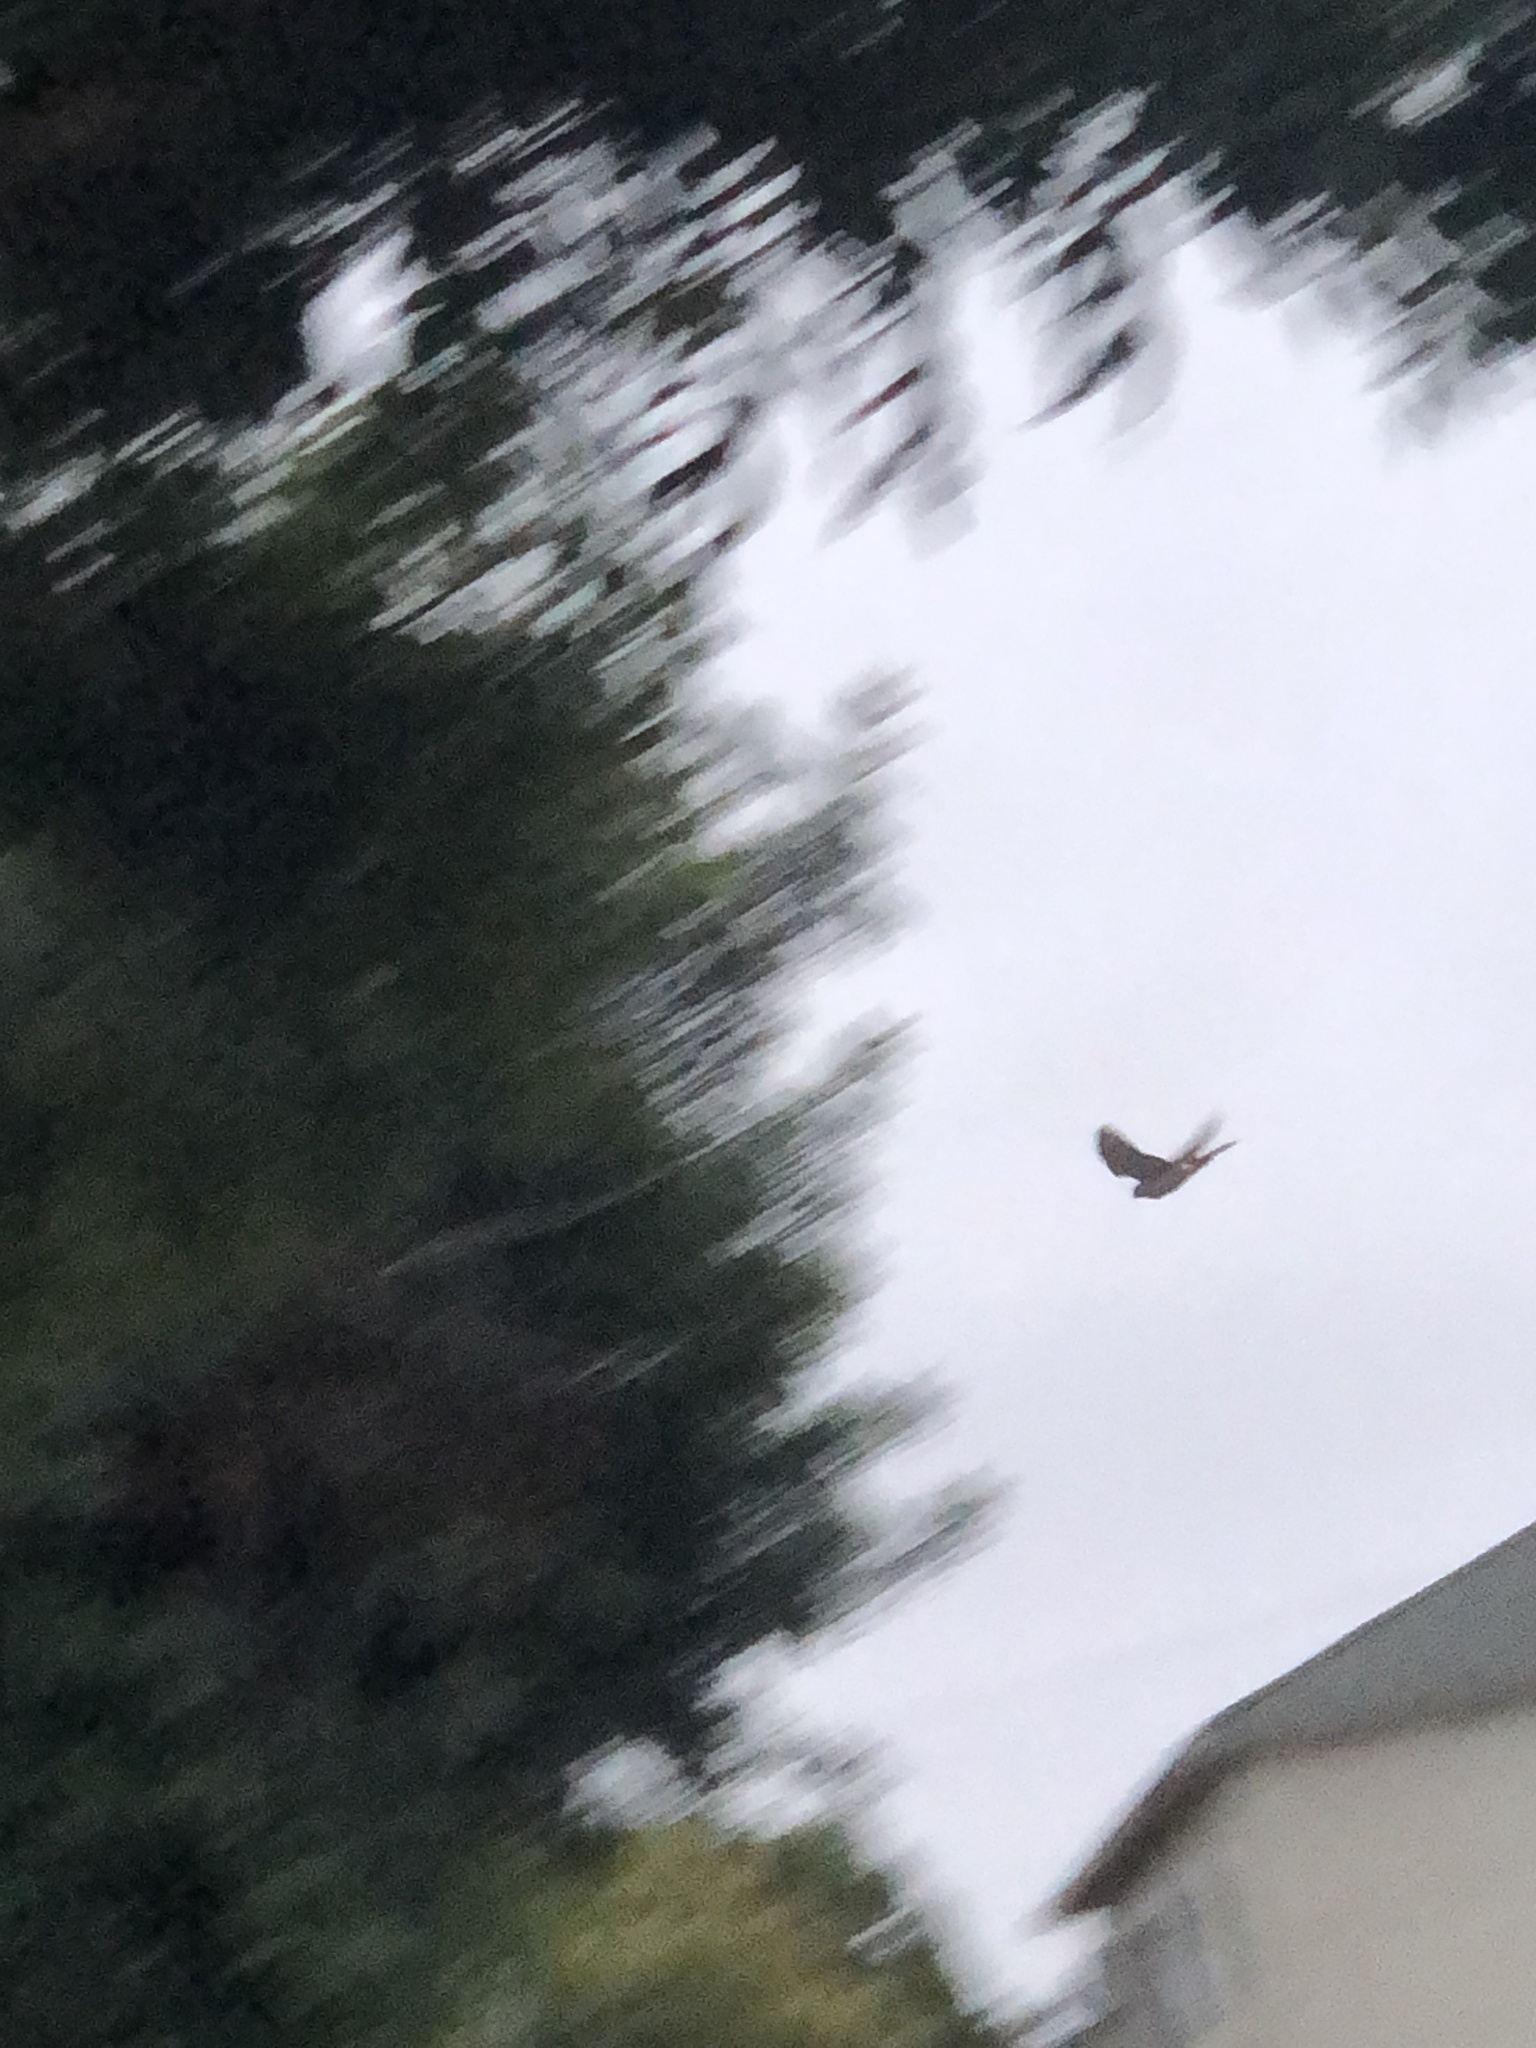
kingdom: Animalia
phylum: Chordata
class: Aves
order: Accipitriformes
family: Accipitridae
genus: Accipiter
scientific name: Accipiter cooperii
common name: Cooper's hawk
